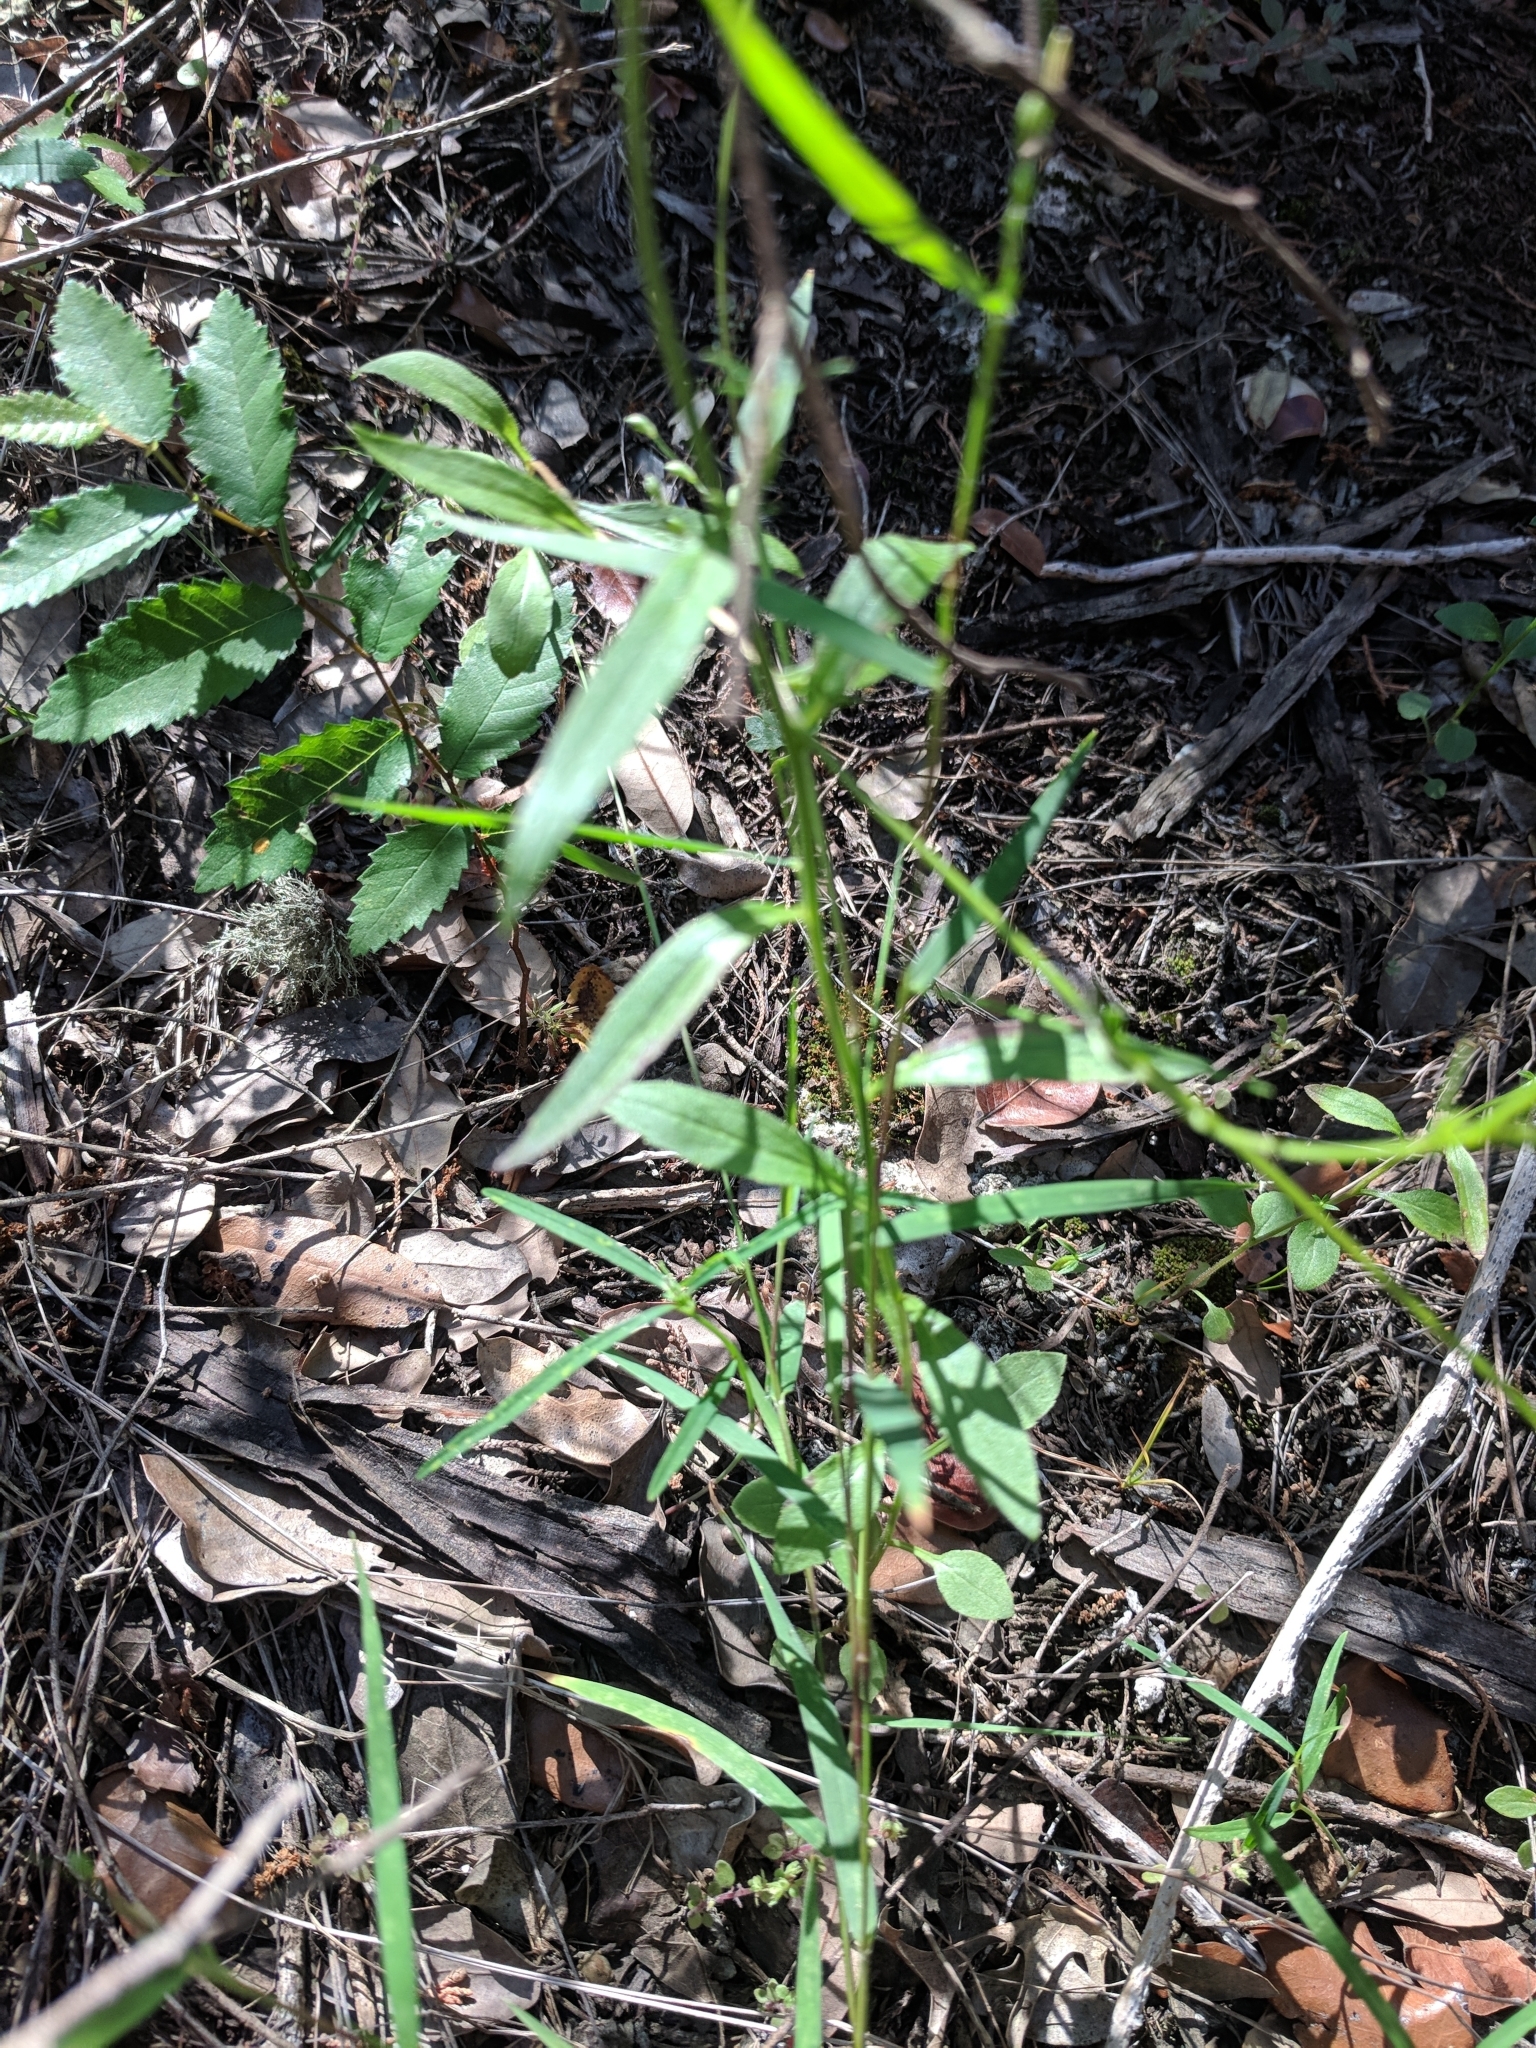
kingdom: Plantae
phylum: Tracheophyta
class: Magnoliopsida
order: Asterales
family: Campanulaceae
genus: Triodanis
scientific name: Triodanis coloradoensis
